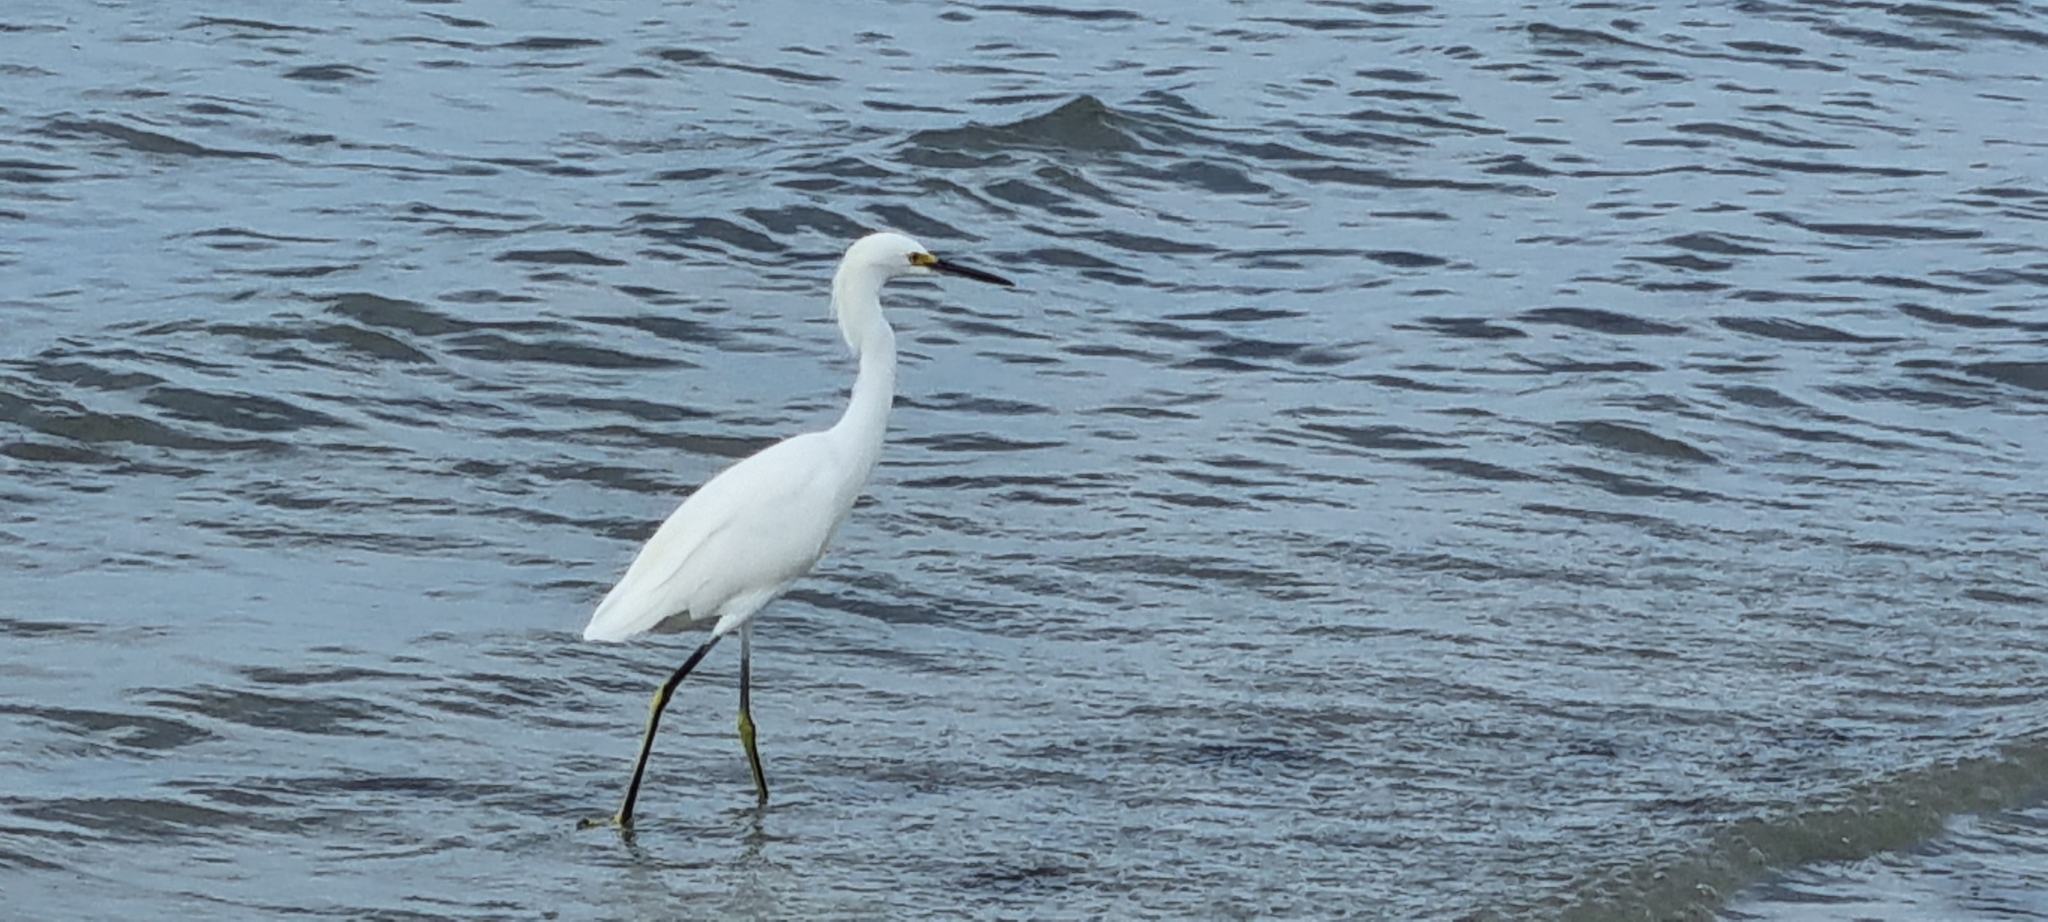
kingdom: Animalia
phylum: Chordata
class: Aves
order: Pelecaniformes
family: Ardeidae
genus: Egretta
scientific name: Egretta thula
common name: Snowy egret
